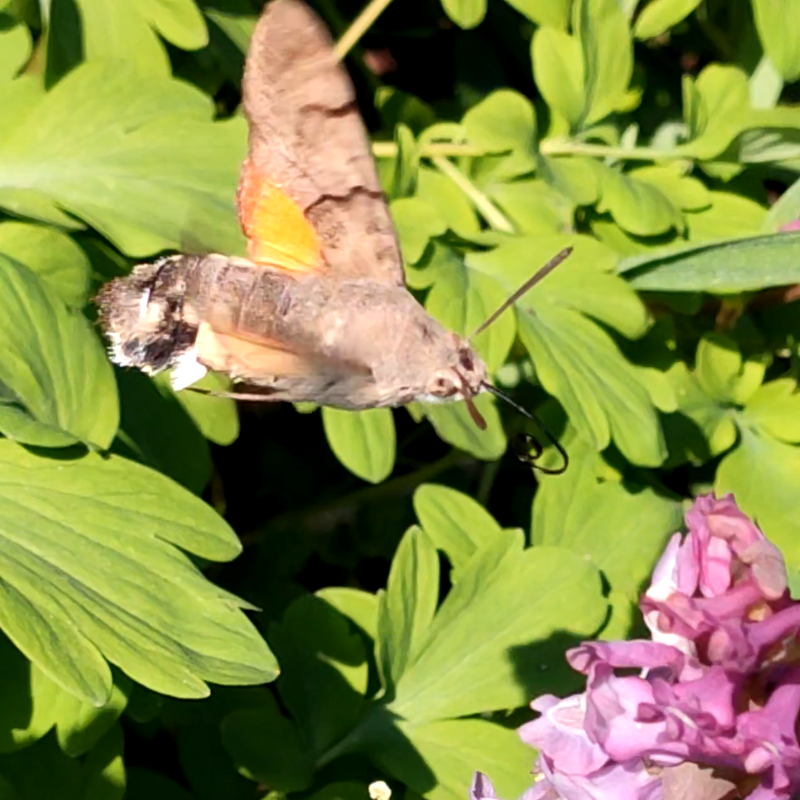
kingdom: Animalia
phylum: Arthropoda
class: Insecta
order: Lepidoptera
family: Sphingidae
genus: Macroglossum
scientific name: Macroglossum stellatarum
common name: Humming-bird hawk-moth
